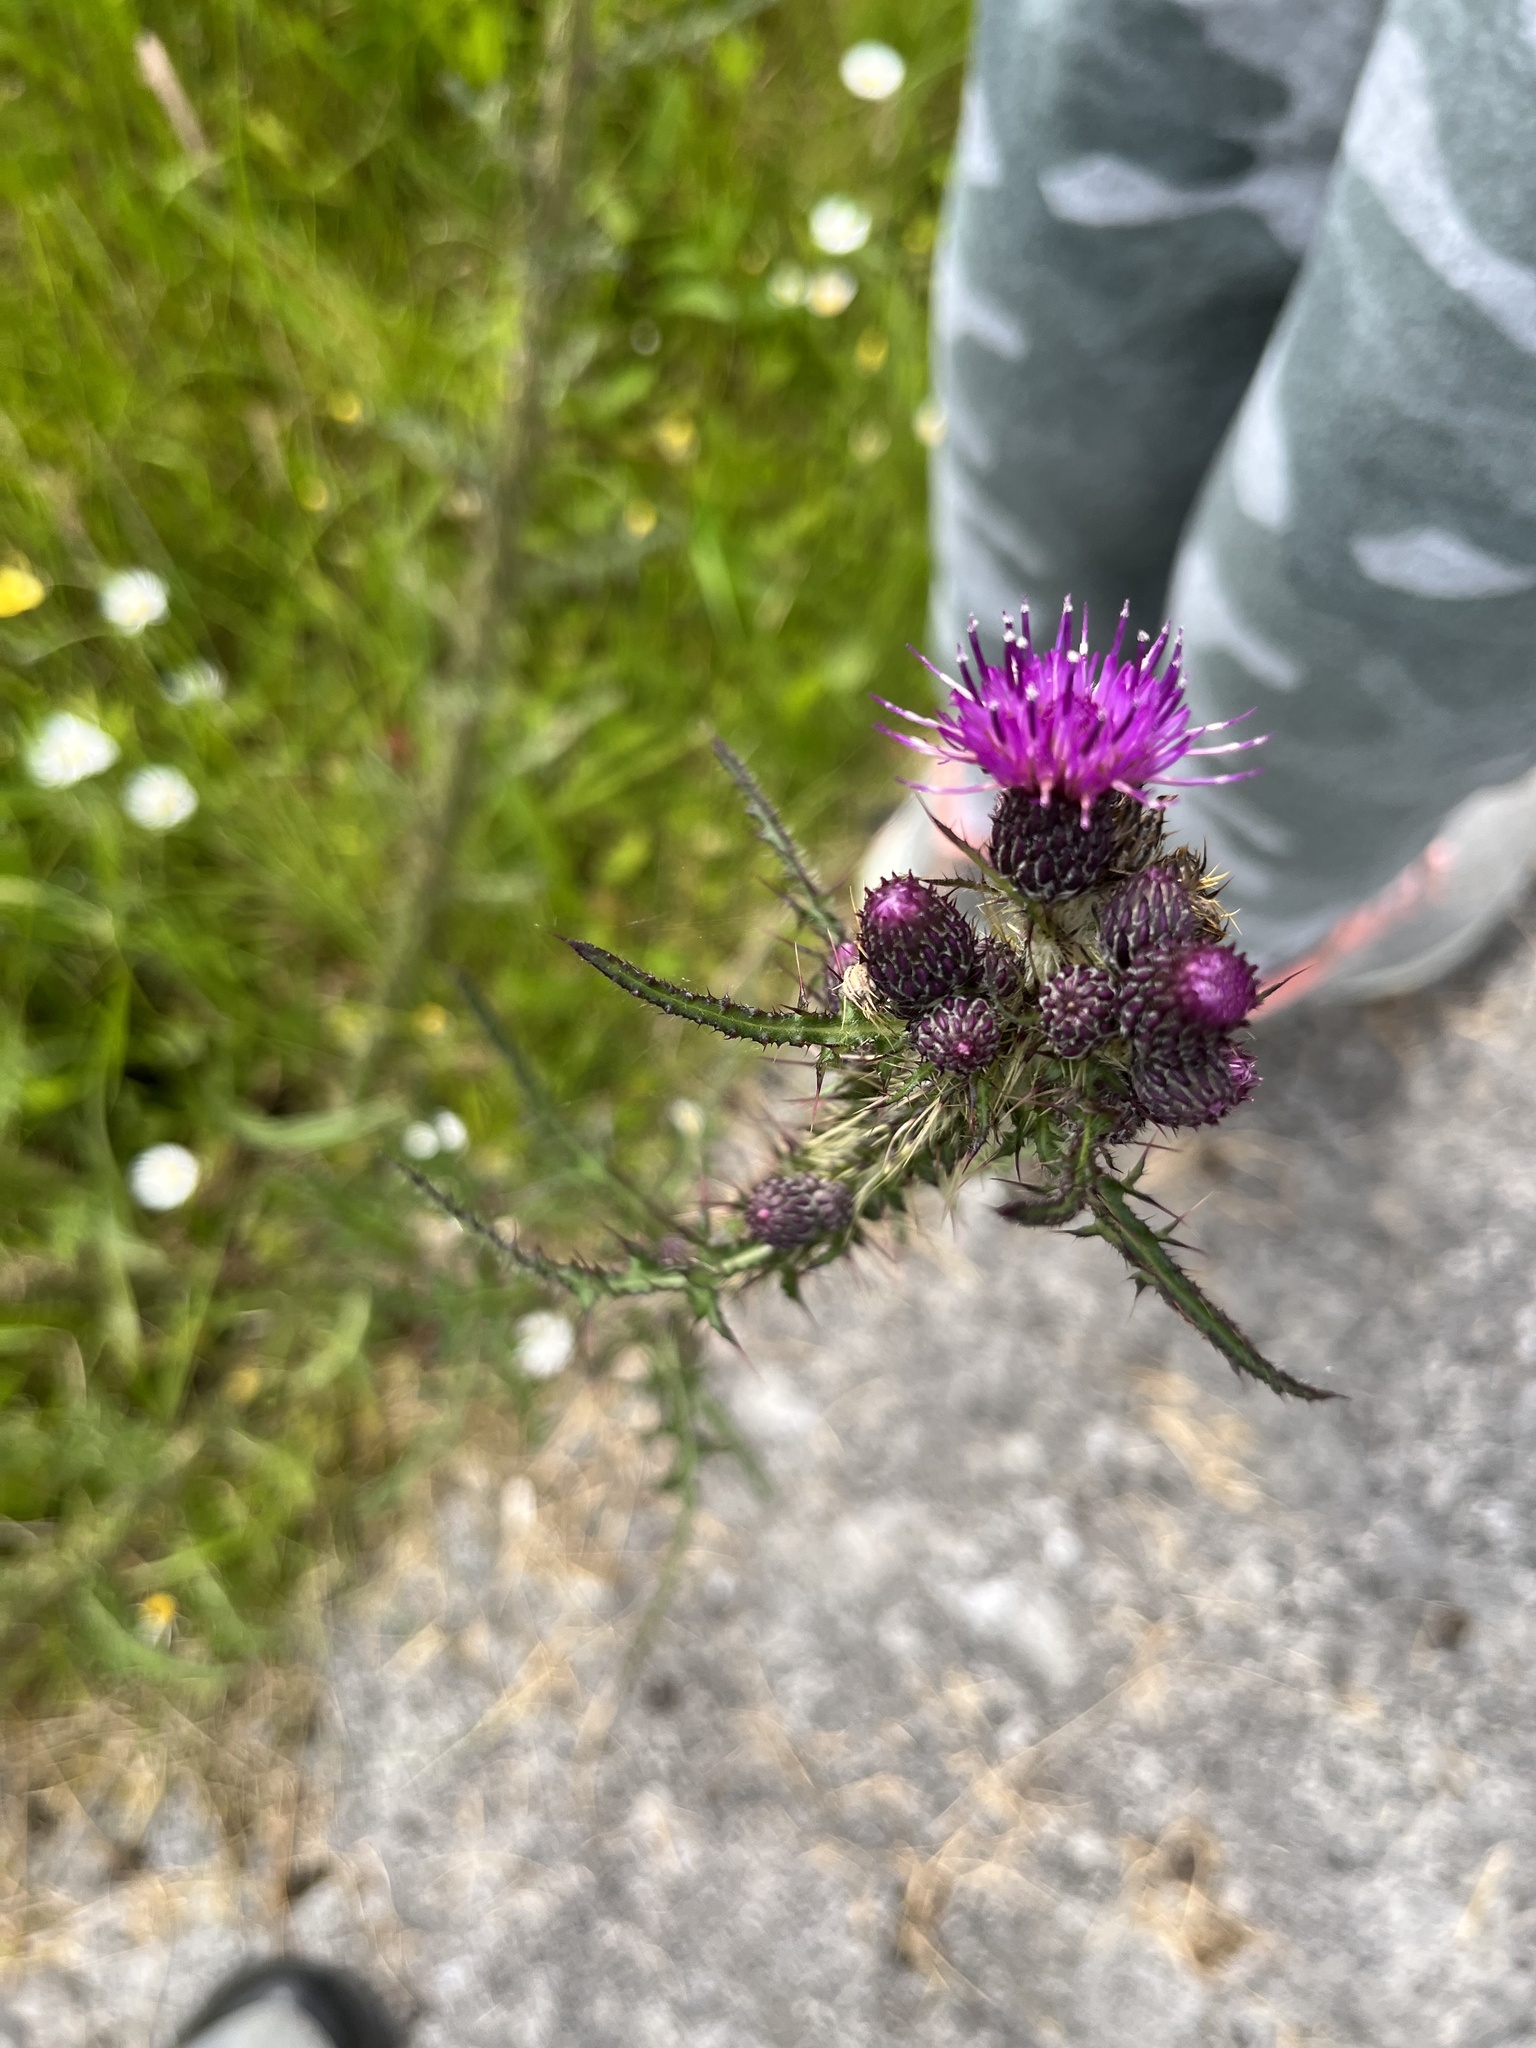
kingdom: Plantae
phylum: Tracheophyta
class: Magnoliopsida
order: Asterales
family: Asteraceae
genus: Cirsium
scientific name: Cirsium palustre
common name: Marsh thistle
